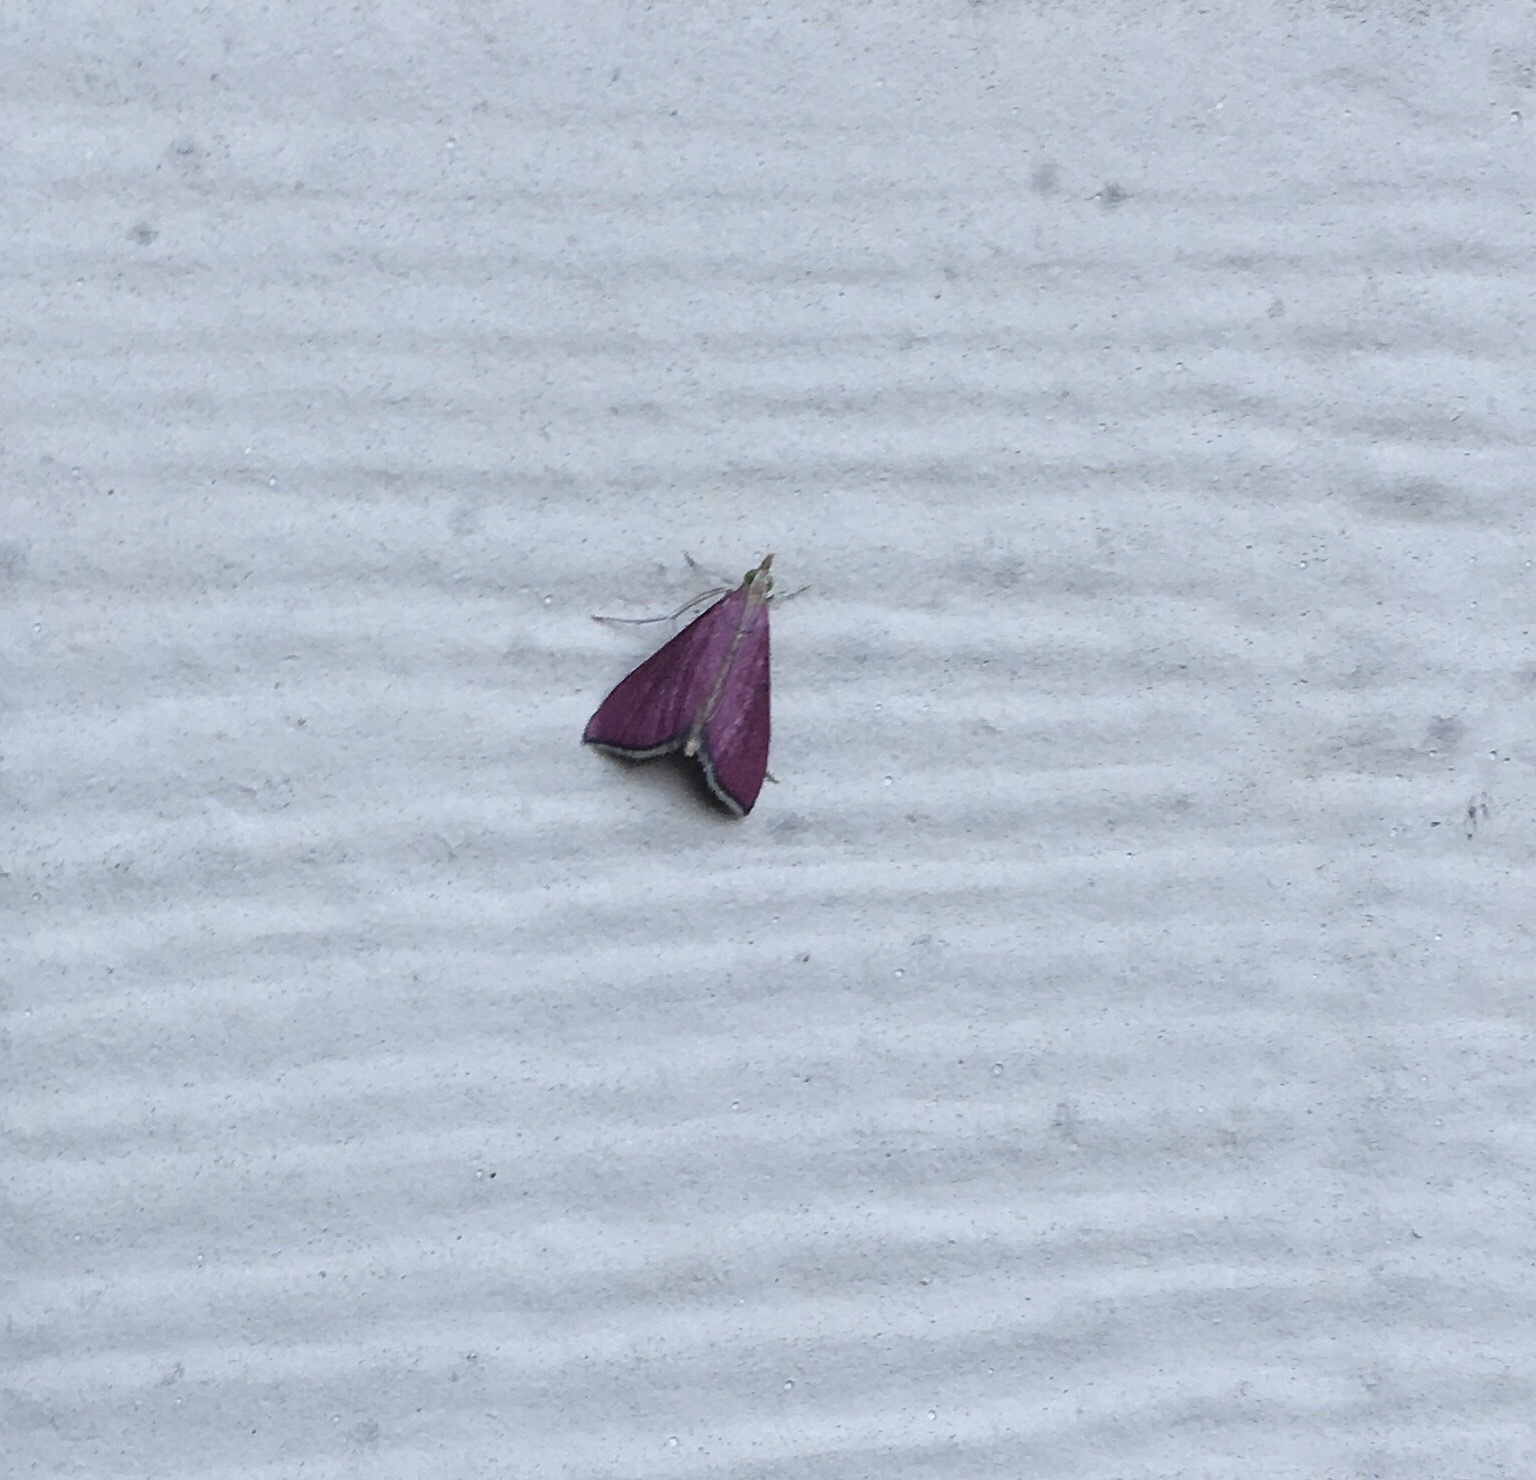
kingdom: Animalia
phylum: Arthropoda
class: Insecta
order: Lepidoptera
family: Crambidae
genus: Pyrausta
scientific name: Pyrausta inornatalis
